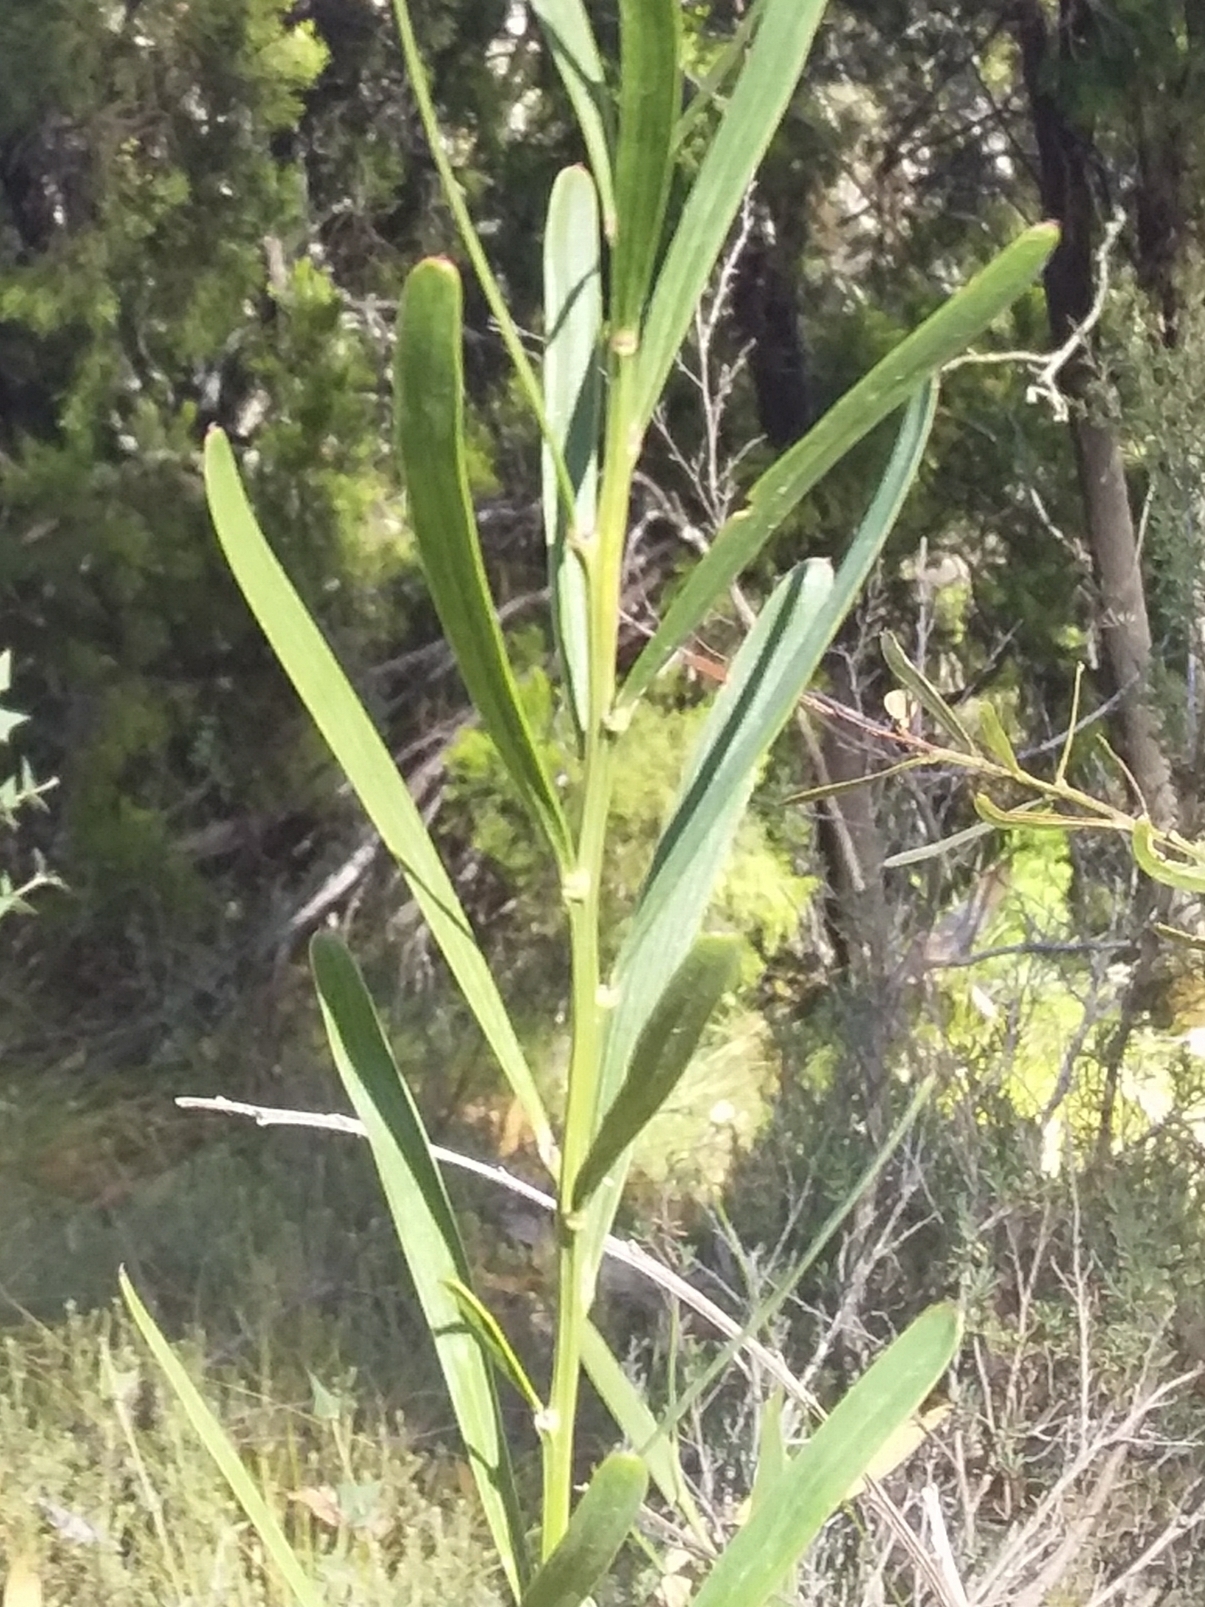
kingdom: Plantae
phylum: Tracheophyta
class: Magnoliopsida
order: Fabales
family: Fabaceae
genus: Daviesia
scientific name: Daviesia leptophylla
